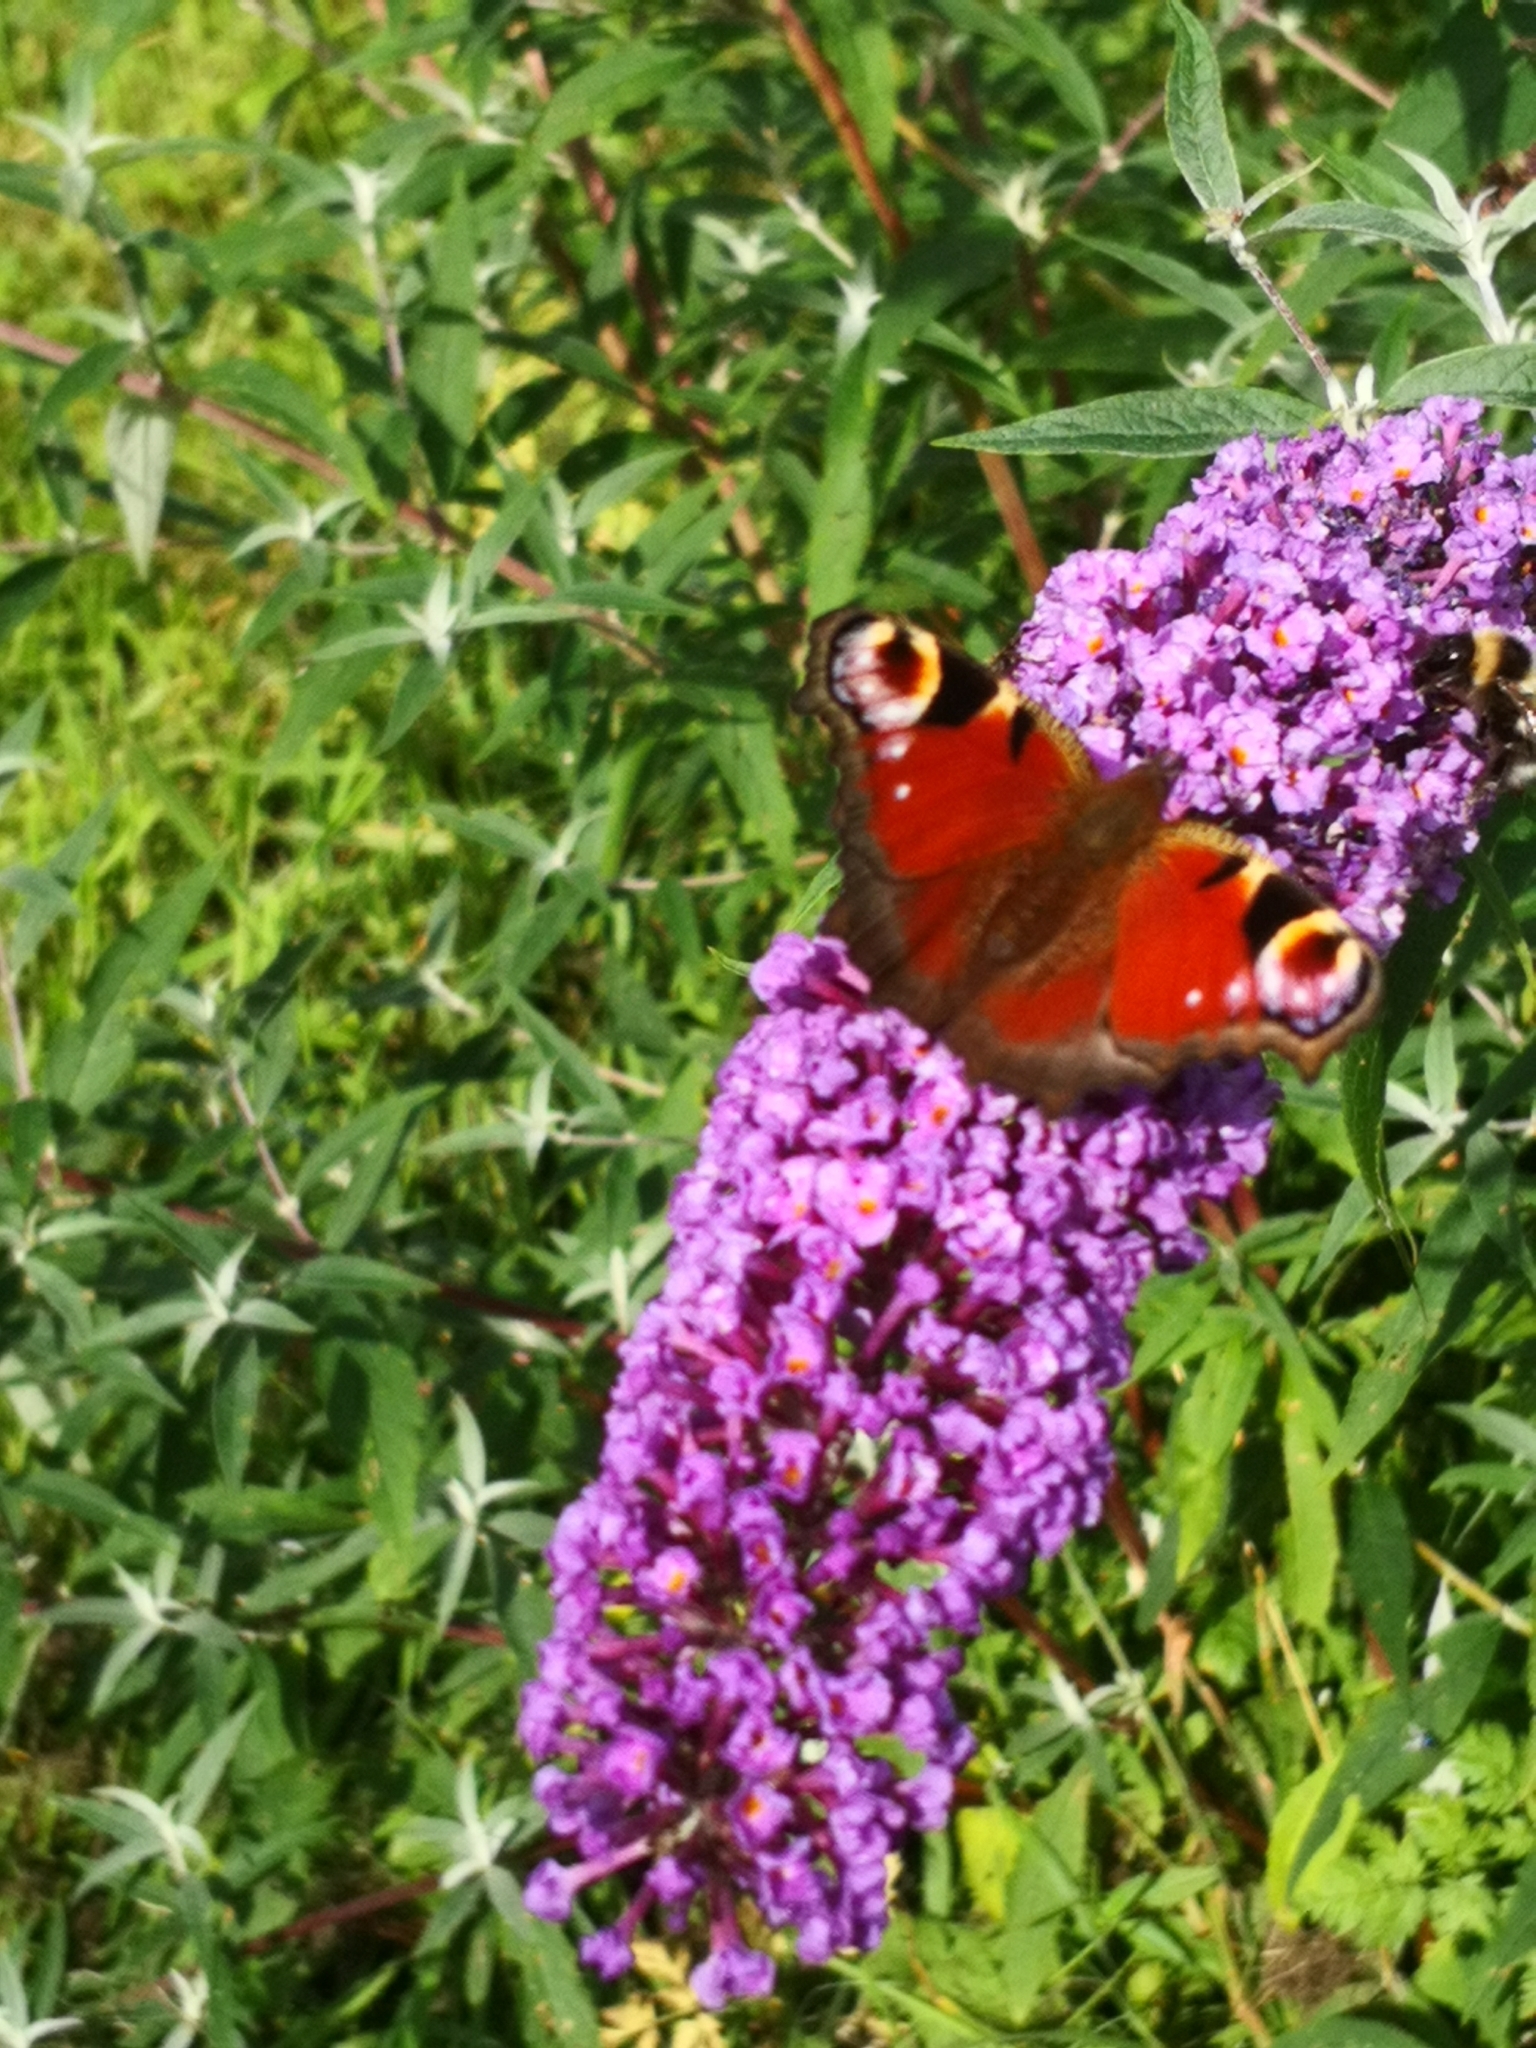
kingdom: Animalia
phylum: Arthropoda
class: Insecta
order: Lepidoptera
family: Nymphalidae
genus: Aglais
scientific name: Aglais io
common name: Peacock
